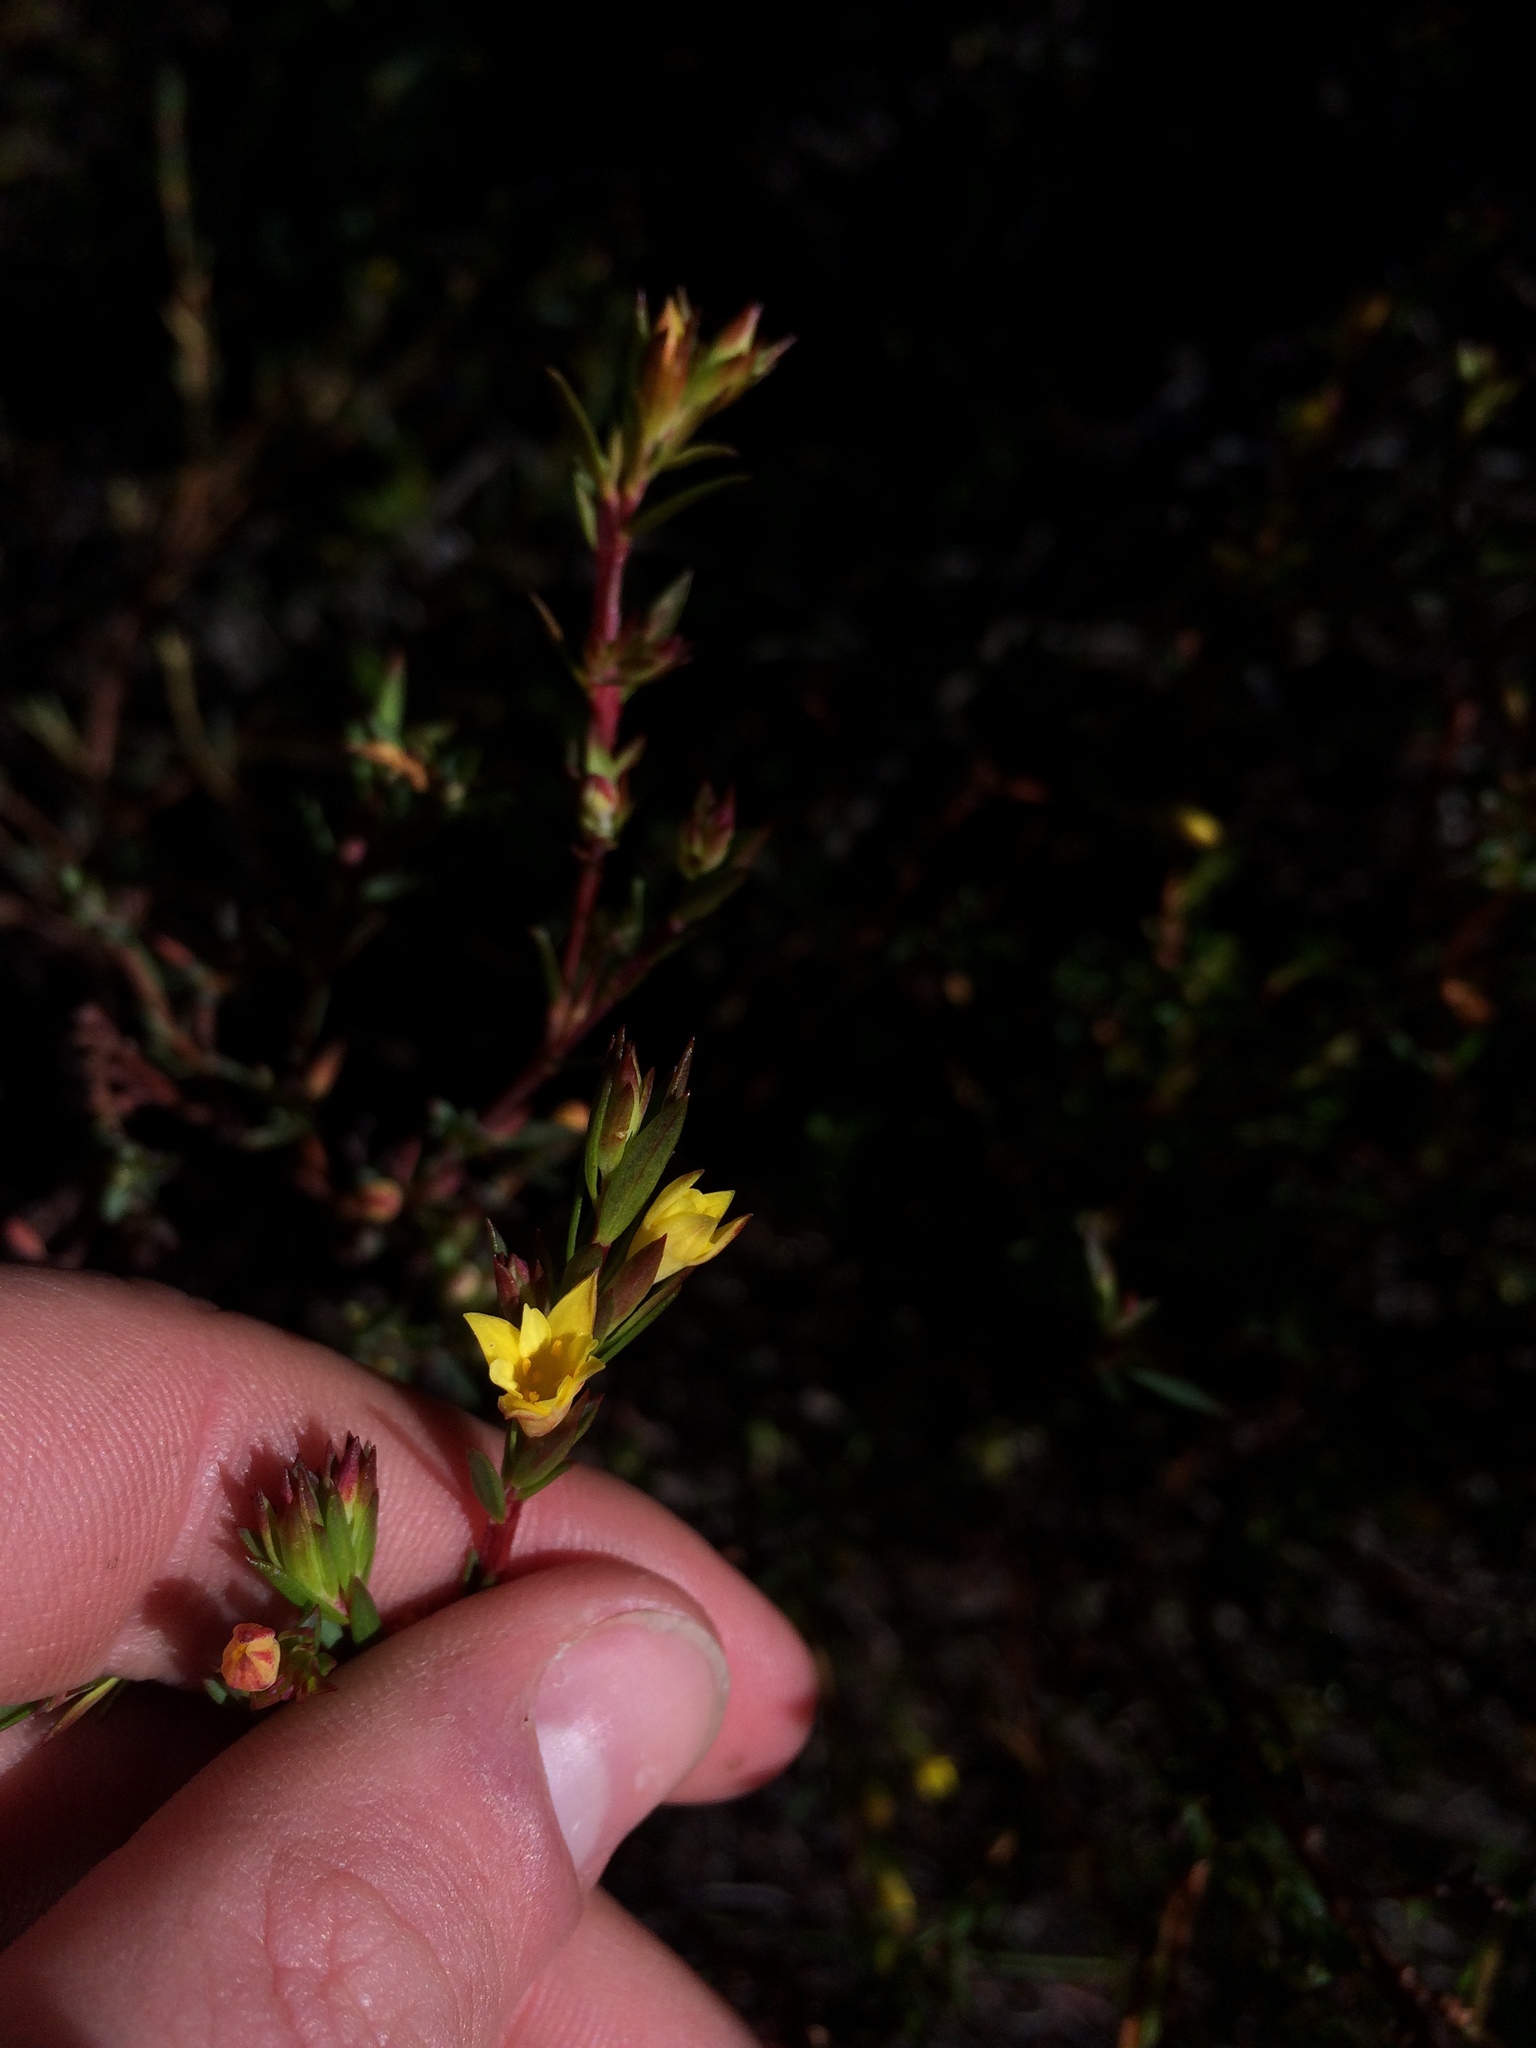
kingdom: Plantae
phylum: Tracheophyta
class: Magnoliopsida
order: Malvales
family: Thymelaeaceae
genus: Gnidia
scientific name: Gnidia juniperifolia
